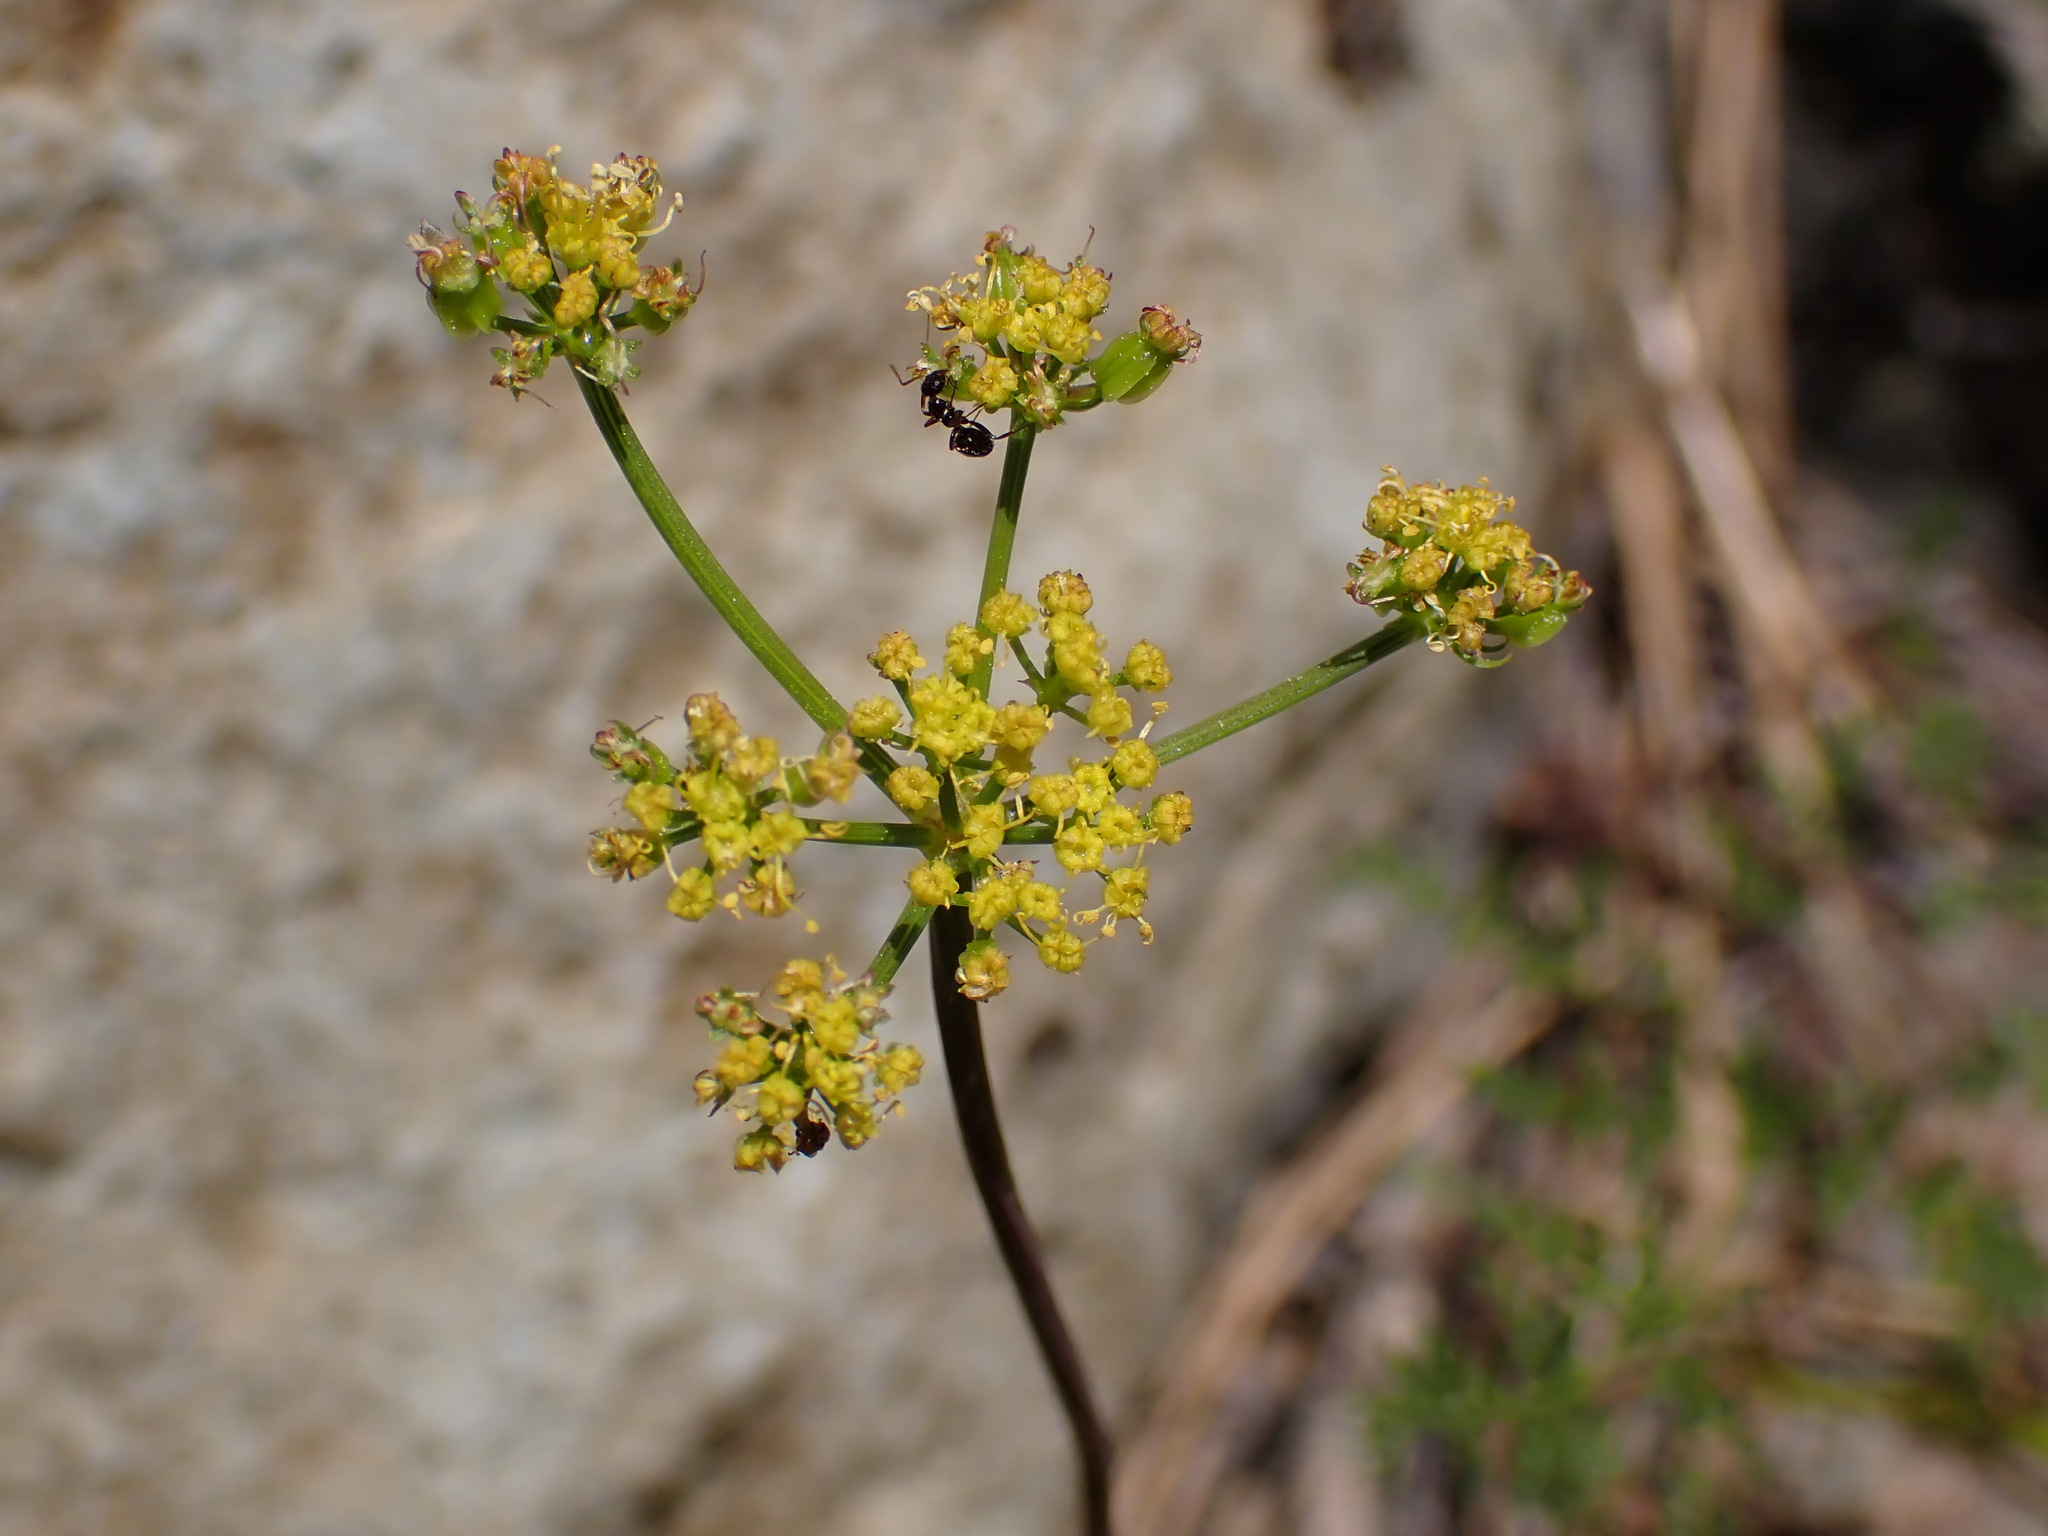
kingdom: Plantae
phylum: Tracheophyta
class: Magnoliopsida
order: Apiales
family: Apiaceae
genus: Pteryxia
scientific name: Pteryxia terebinthina
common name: Turpentine wavewing
